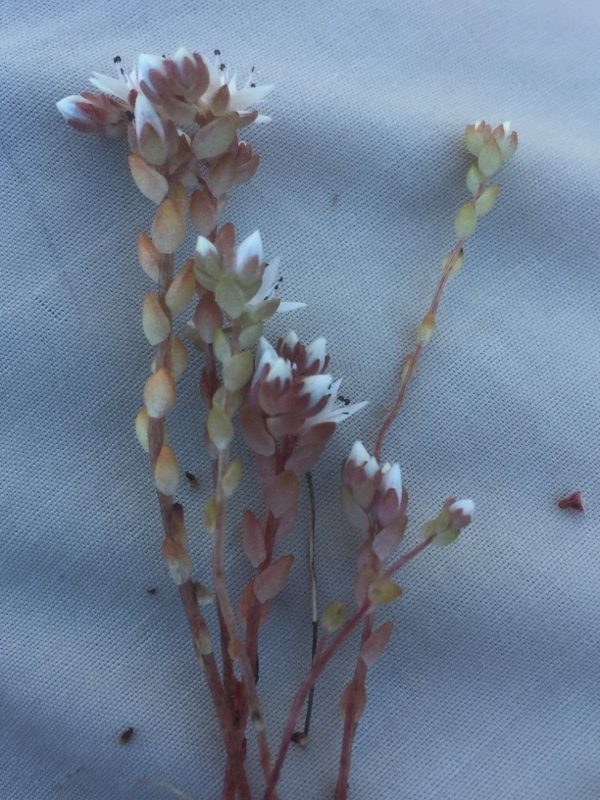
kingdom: Plantae
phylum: Tracheophyta
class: Magnoliopsida
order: Saxifragales
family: Crassulaceae
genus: Sedum
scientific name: Sedum arenarium
